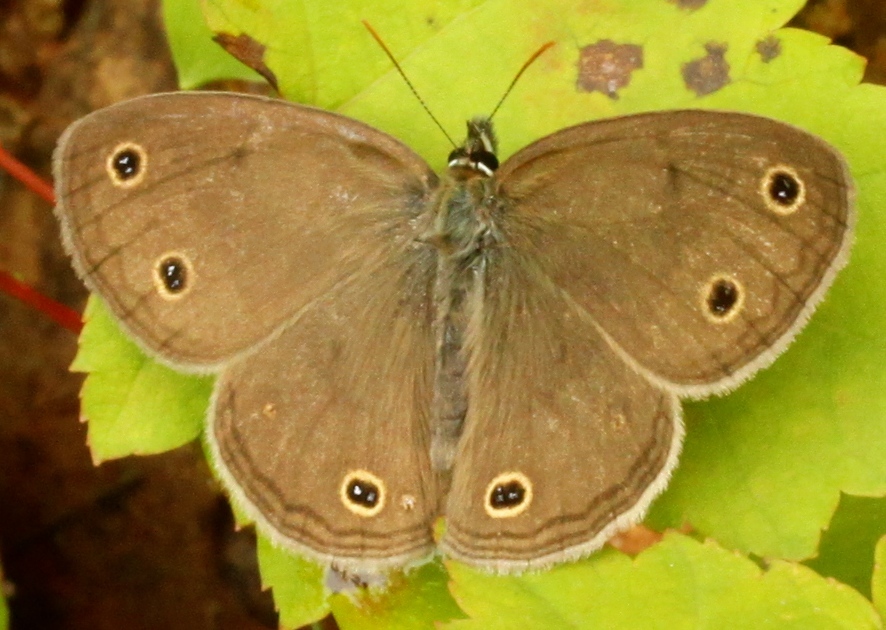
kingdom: Animalia
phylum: Arthropoda
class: Insecta
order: Lepidoptera
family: Nymphalidae
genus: Euptychia
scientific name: Euptychia cymela
